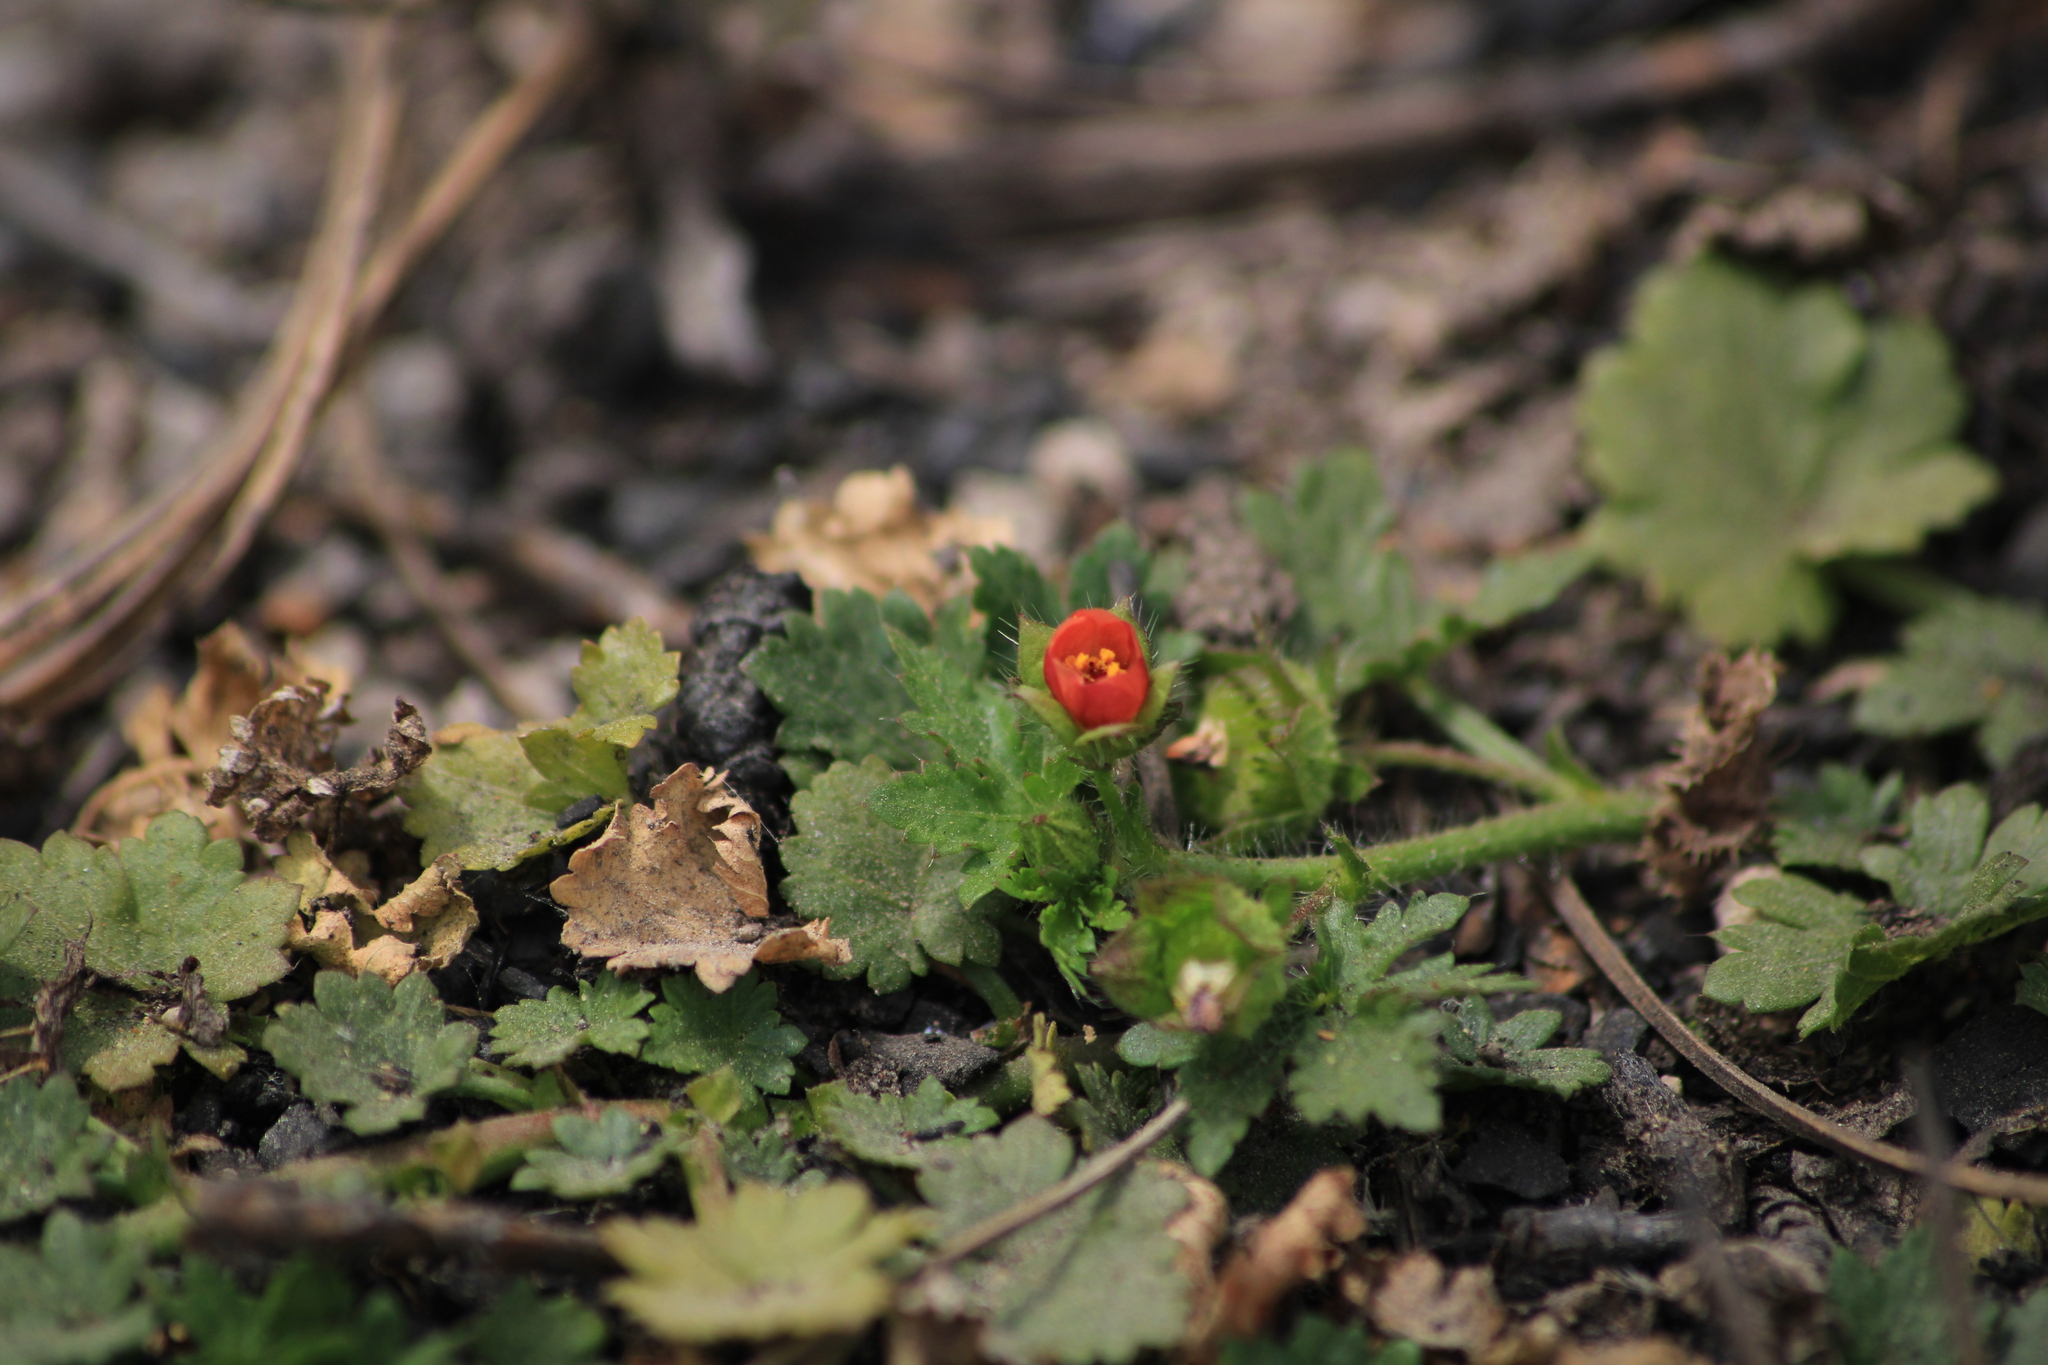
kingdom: Plantae
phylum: Tracheophyta
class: Magnoliopsida
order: Malvales
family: Malvaceae
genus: Modiola
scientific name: Modiola caroliniana
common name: Carolina bristlemallow
